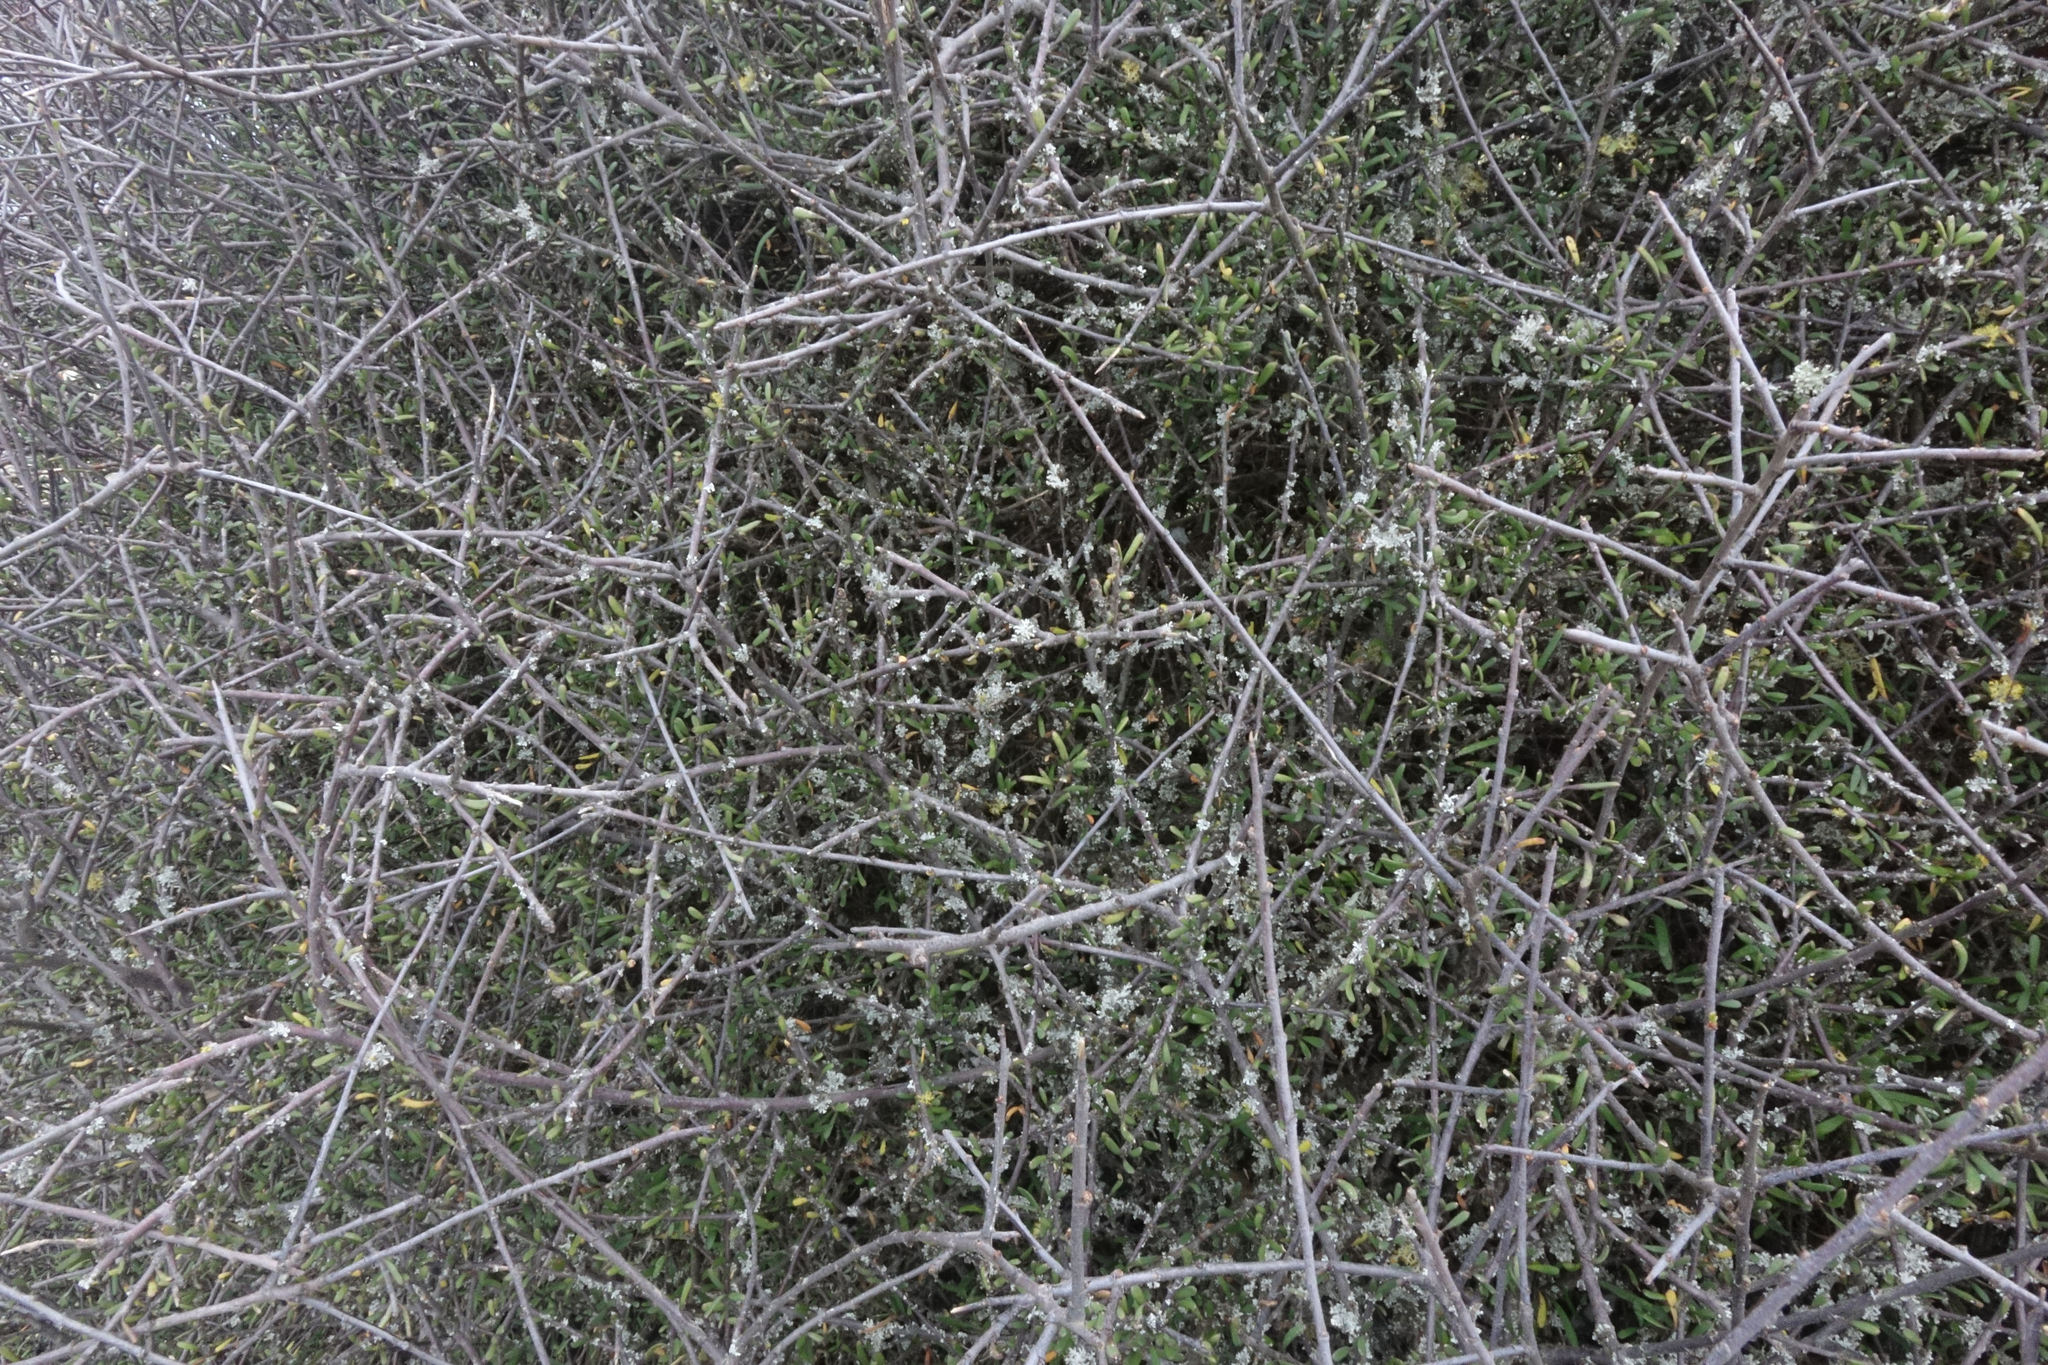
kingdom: Plantae
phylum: Tracheophyta
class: Magnoliopsida
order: Malvales
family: Malvaceae
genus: Plagianthus
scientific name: Plagianthus divaricatus
